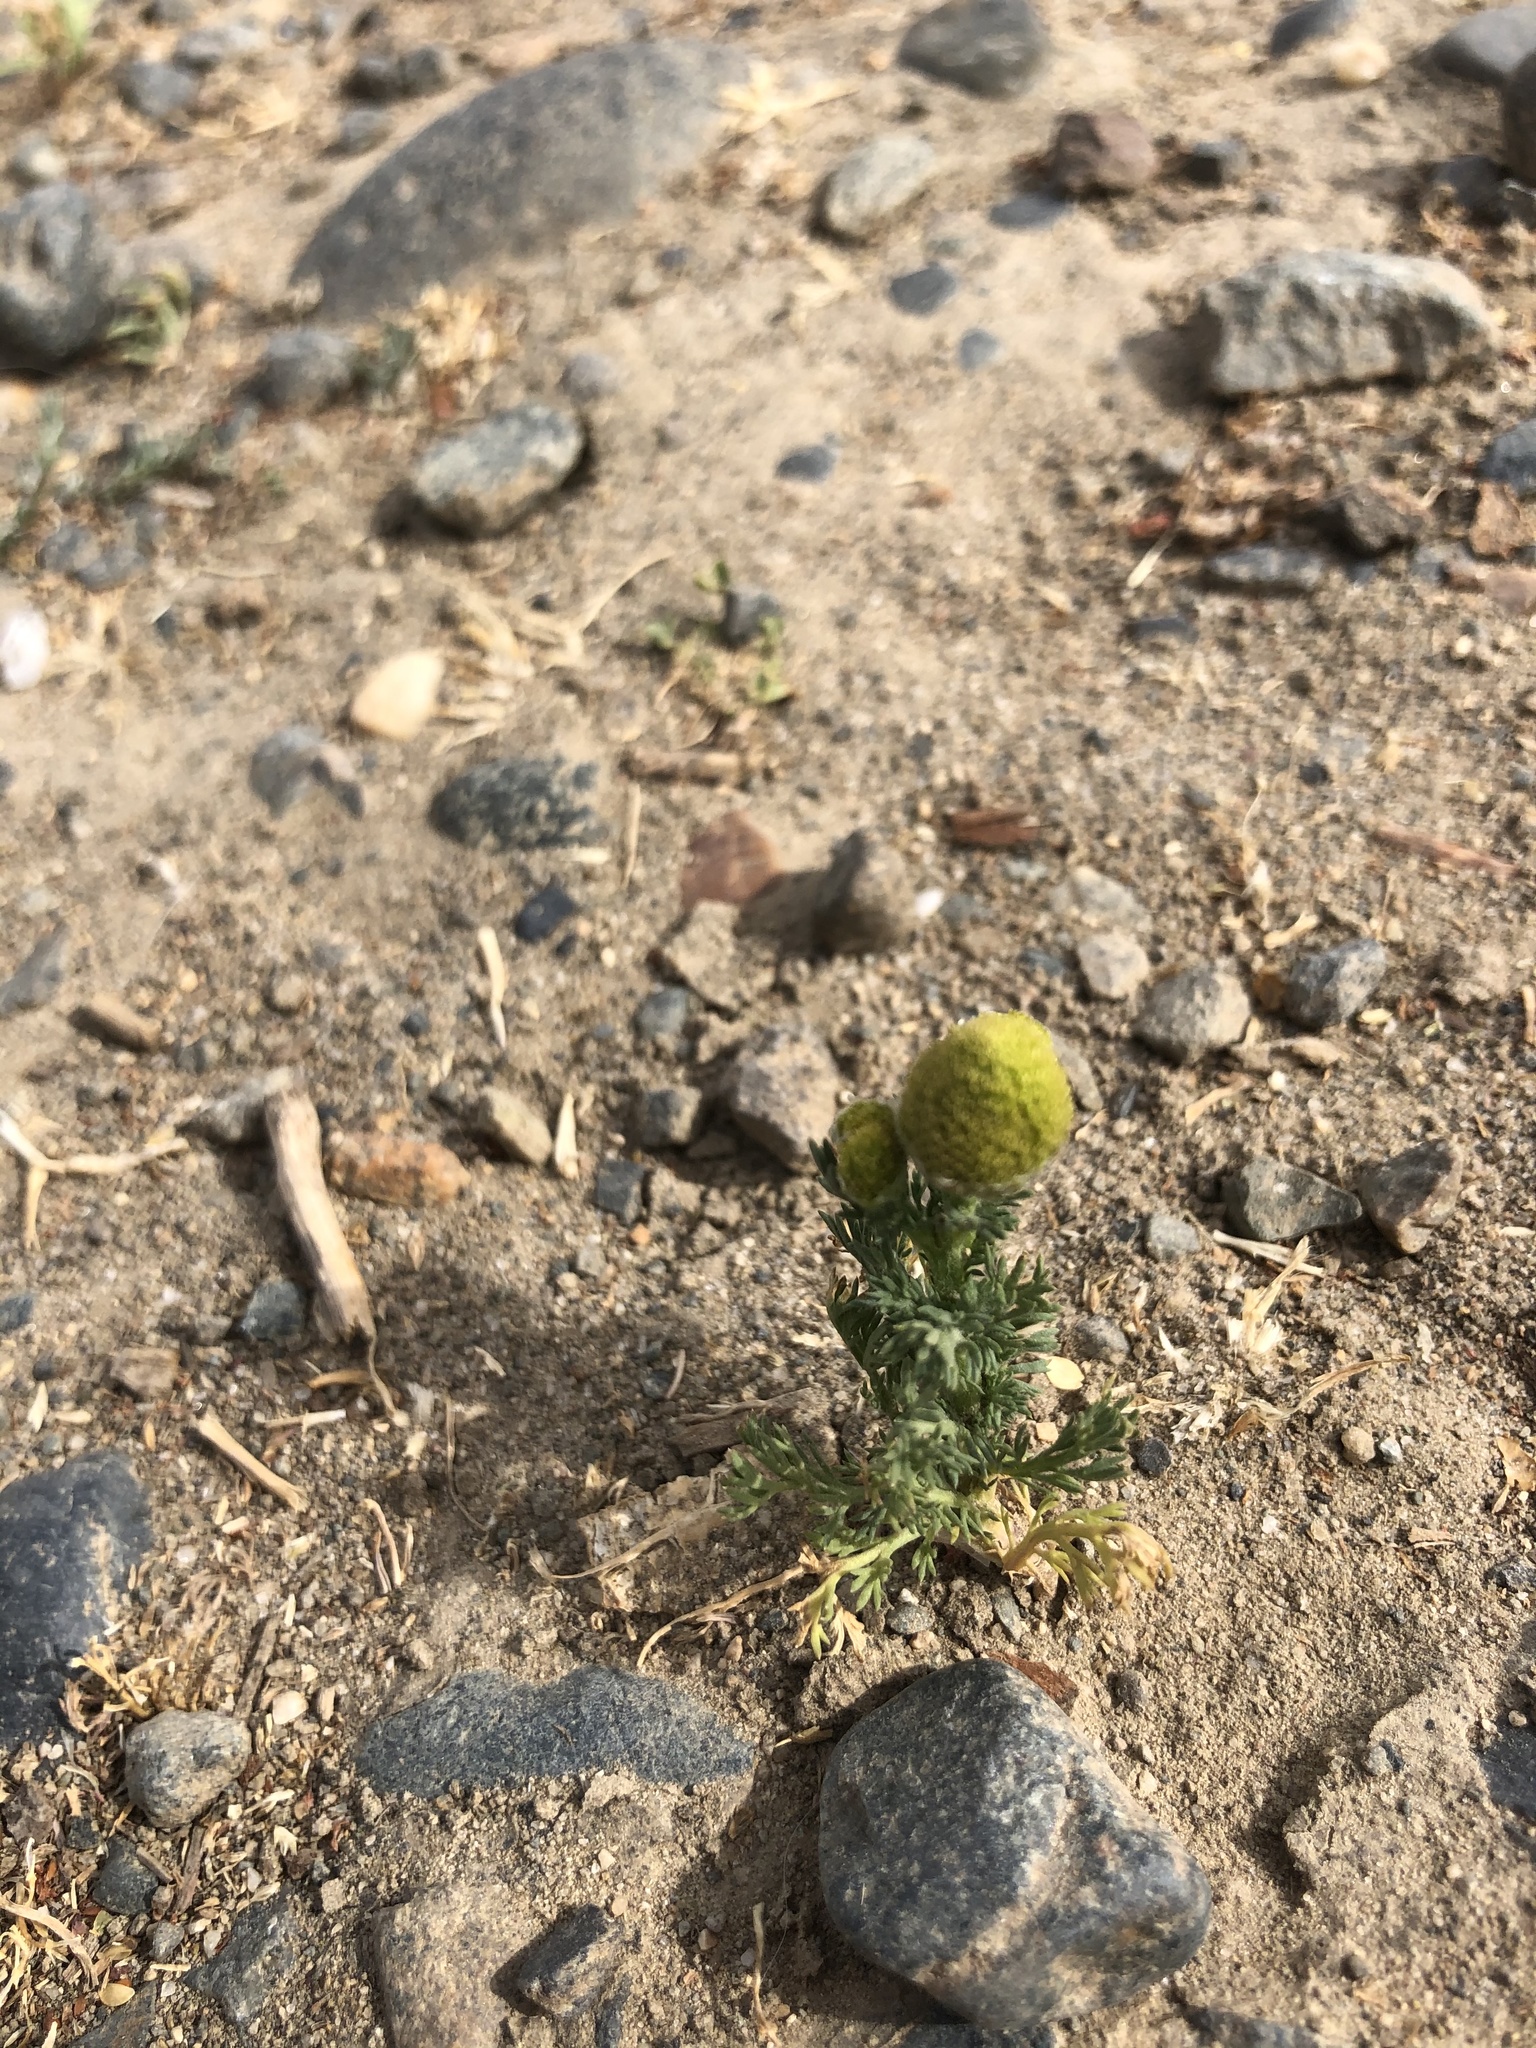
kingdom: Plantae
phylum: Tracheophyta
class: Magnoliopsida
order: Asterales
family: Asteraceae
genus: Matricaria
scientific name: Matricaria discoidea
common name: Disc mayweed
